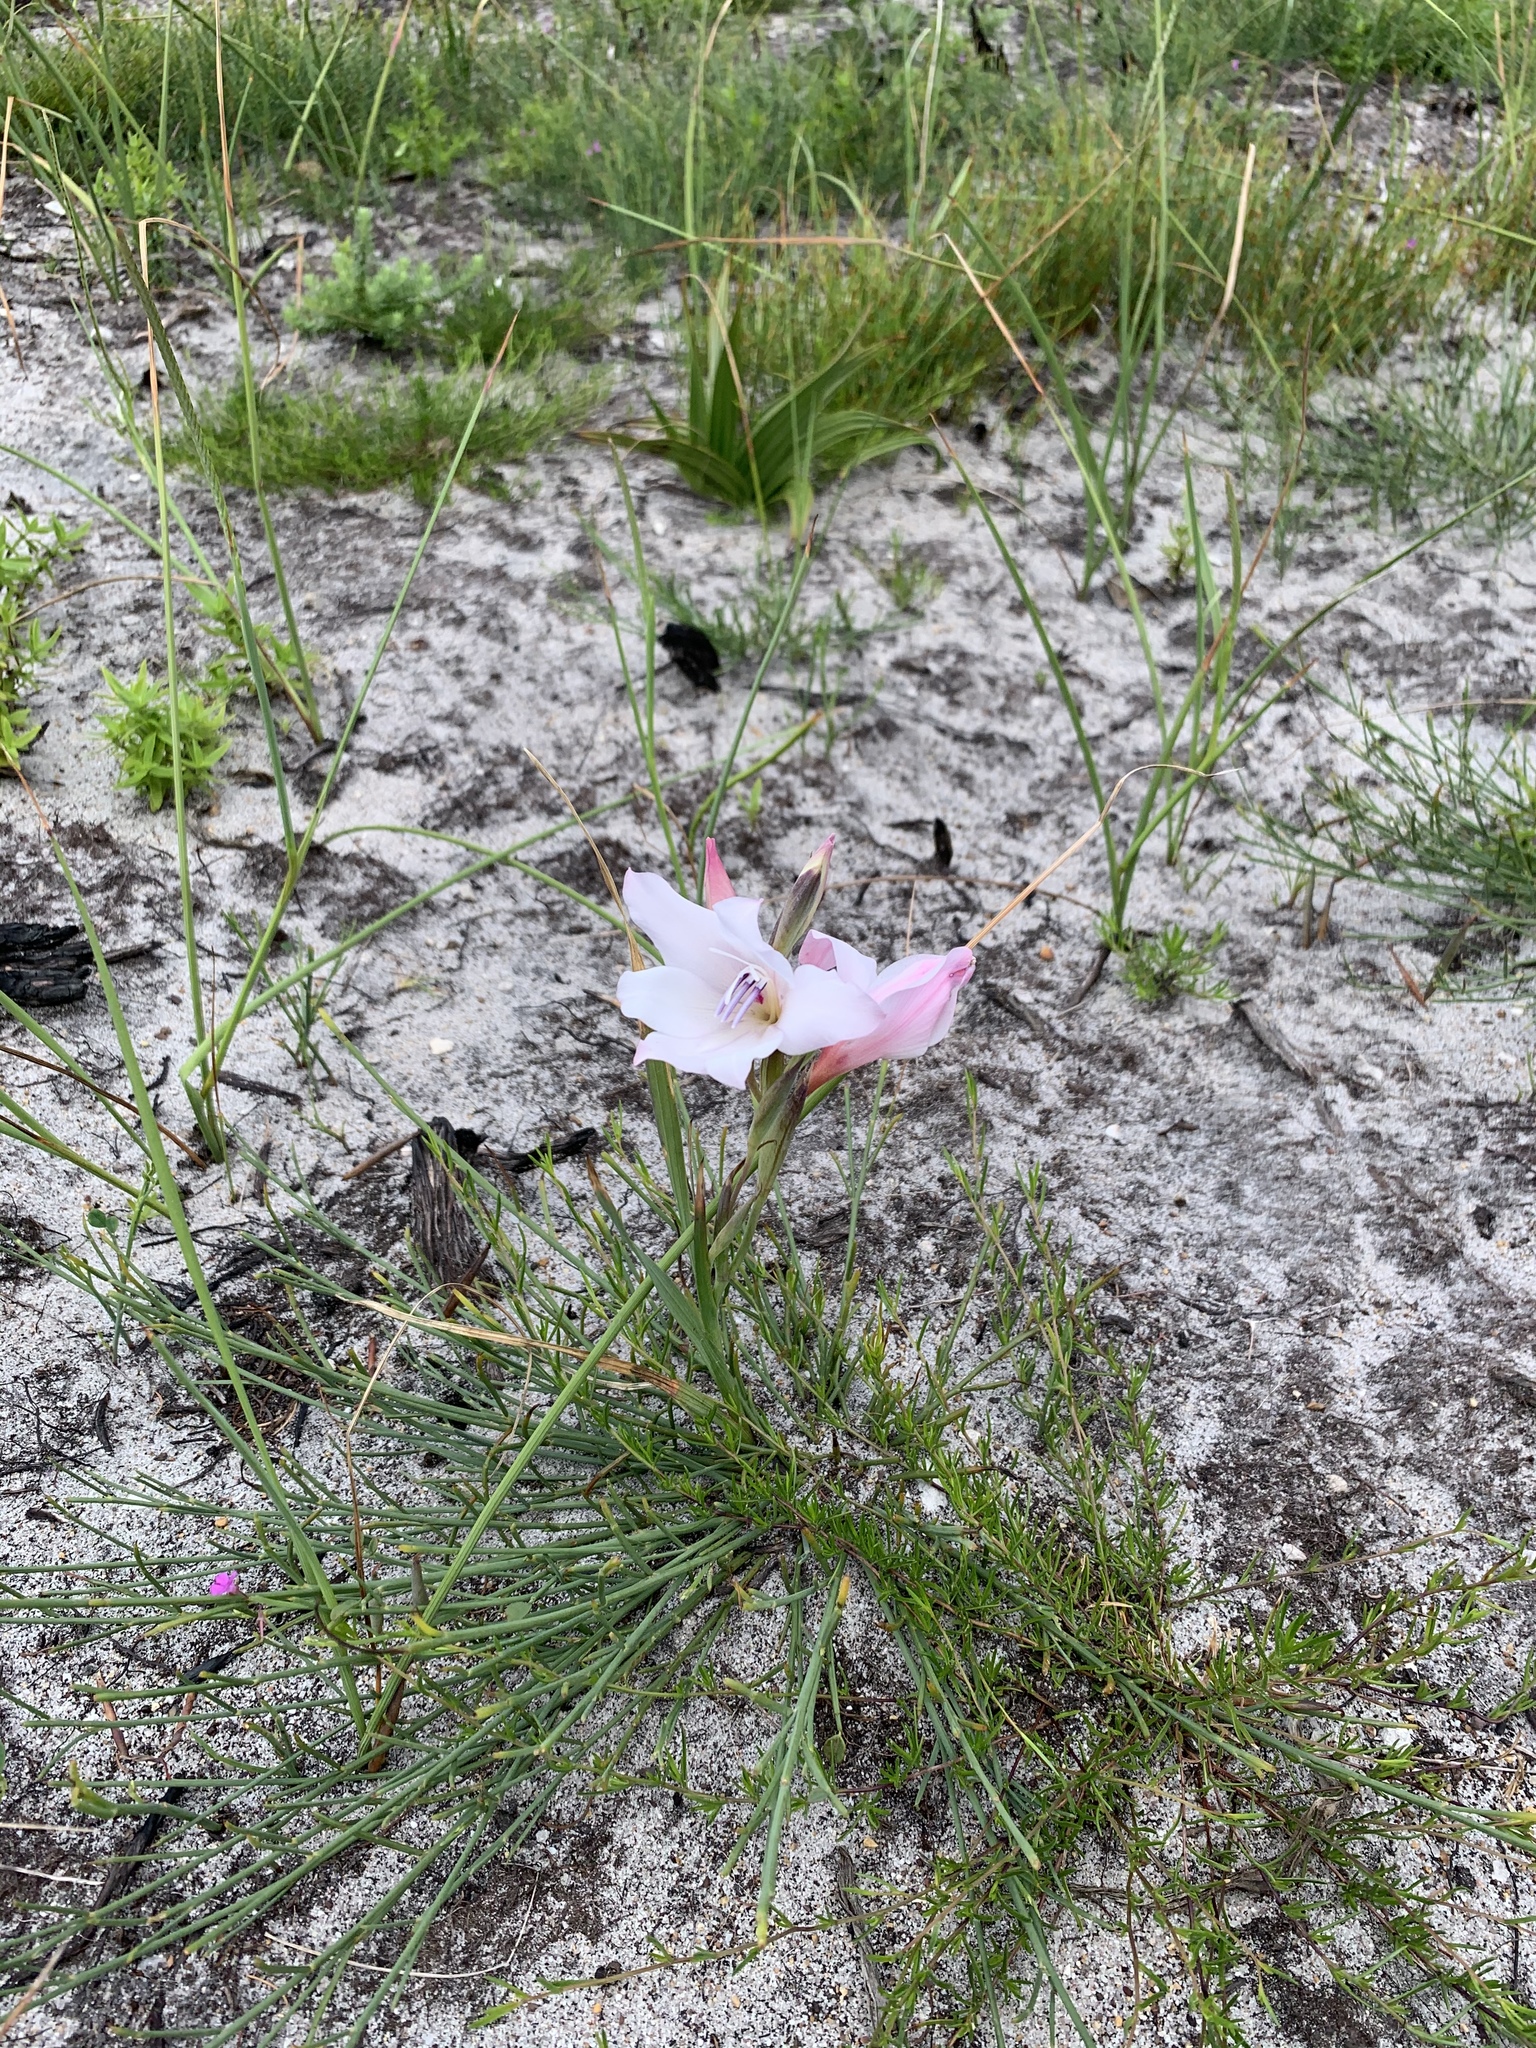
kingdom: Plantae
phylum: Tracheophyta
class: Liliopsida
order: Asparagales
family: Iridaceae
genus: Gladiolus
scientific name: Gladiolus carneus
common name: Painted-lady
